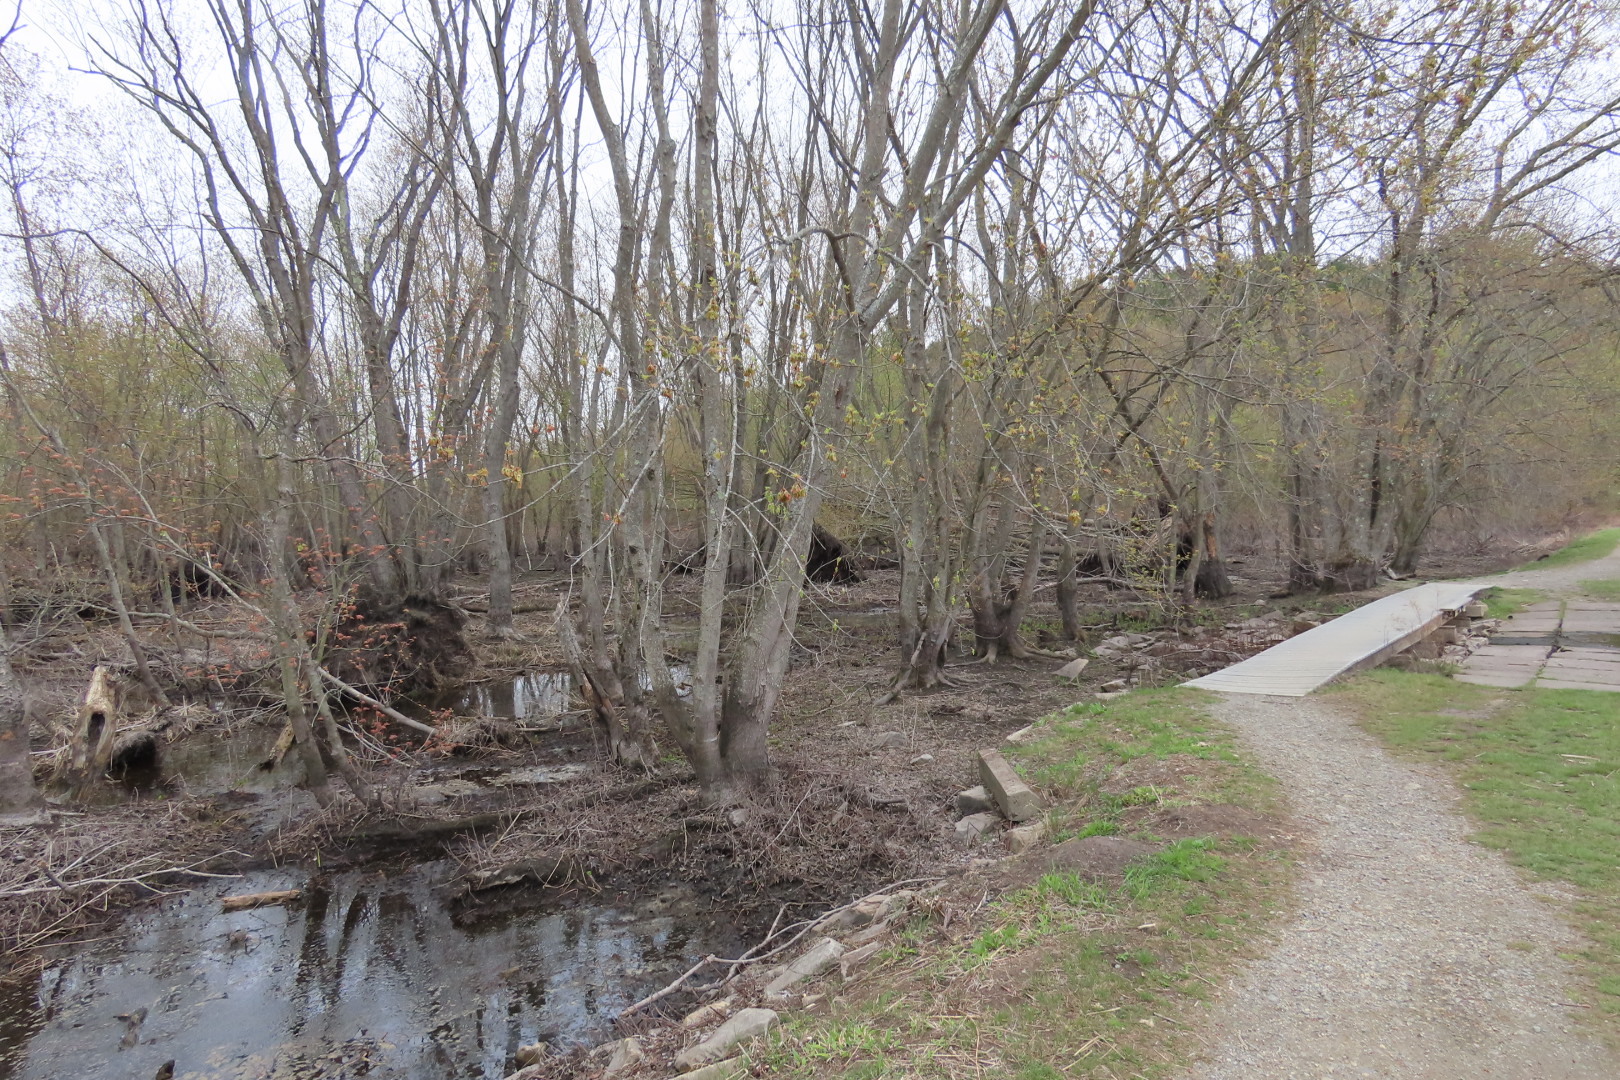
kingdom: Plantae
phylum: Tracheophyta
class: Magnoliopsida
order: Sapindales
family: Sapindaceae
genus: Acer
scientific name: Acer saccharinum
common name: Silver maple
